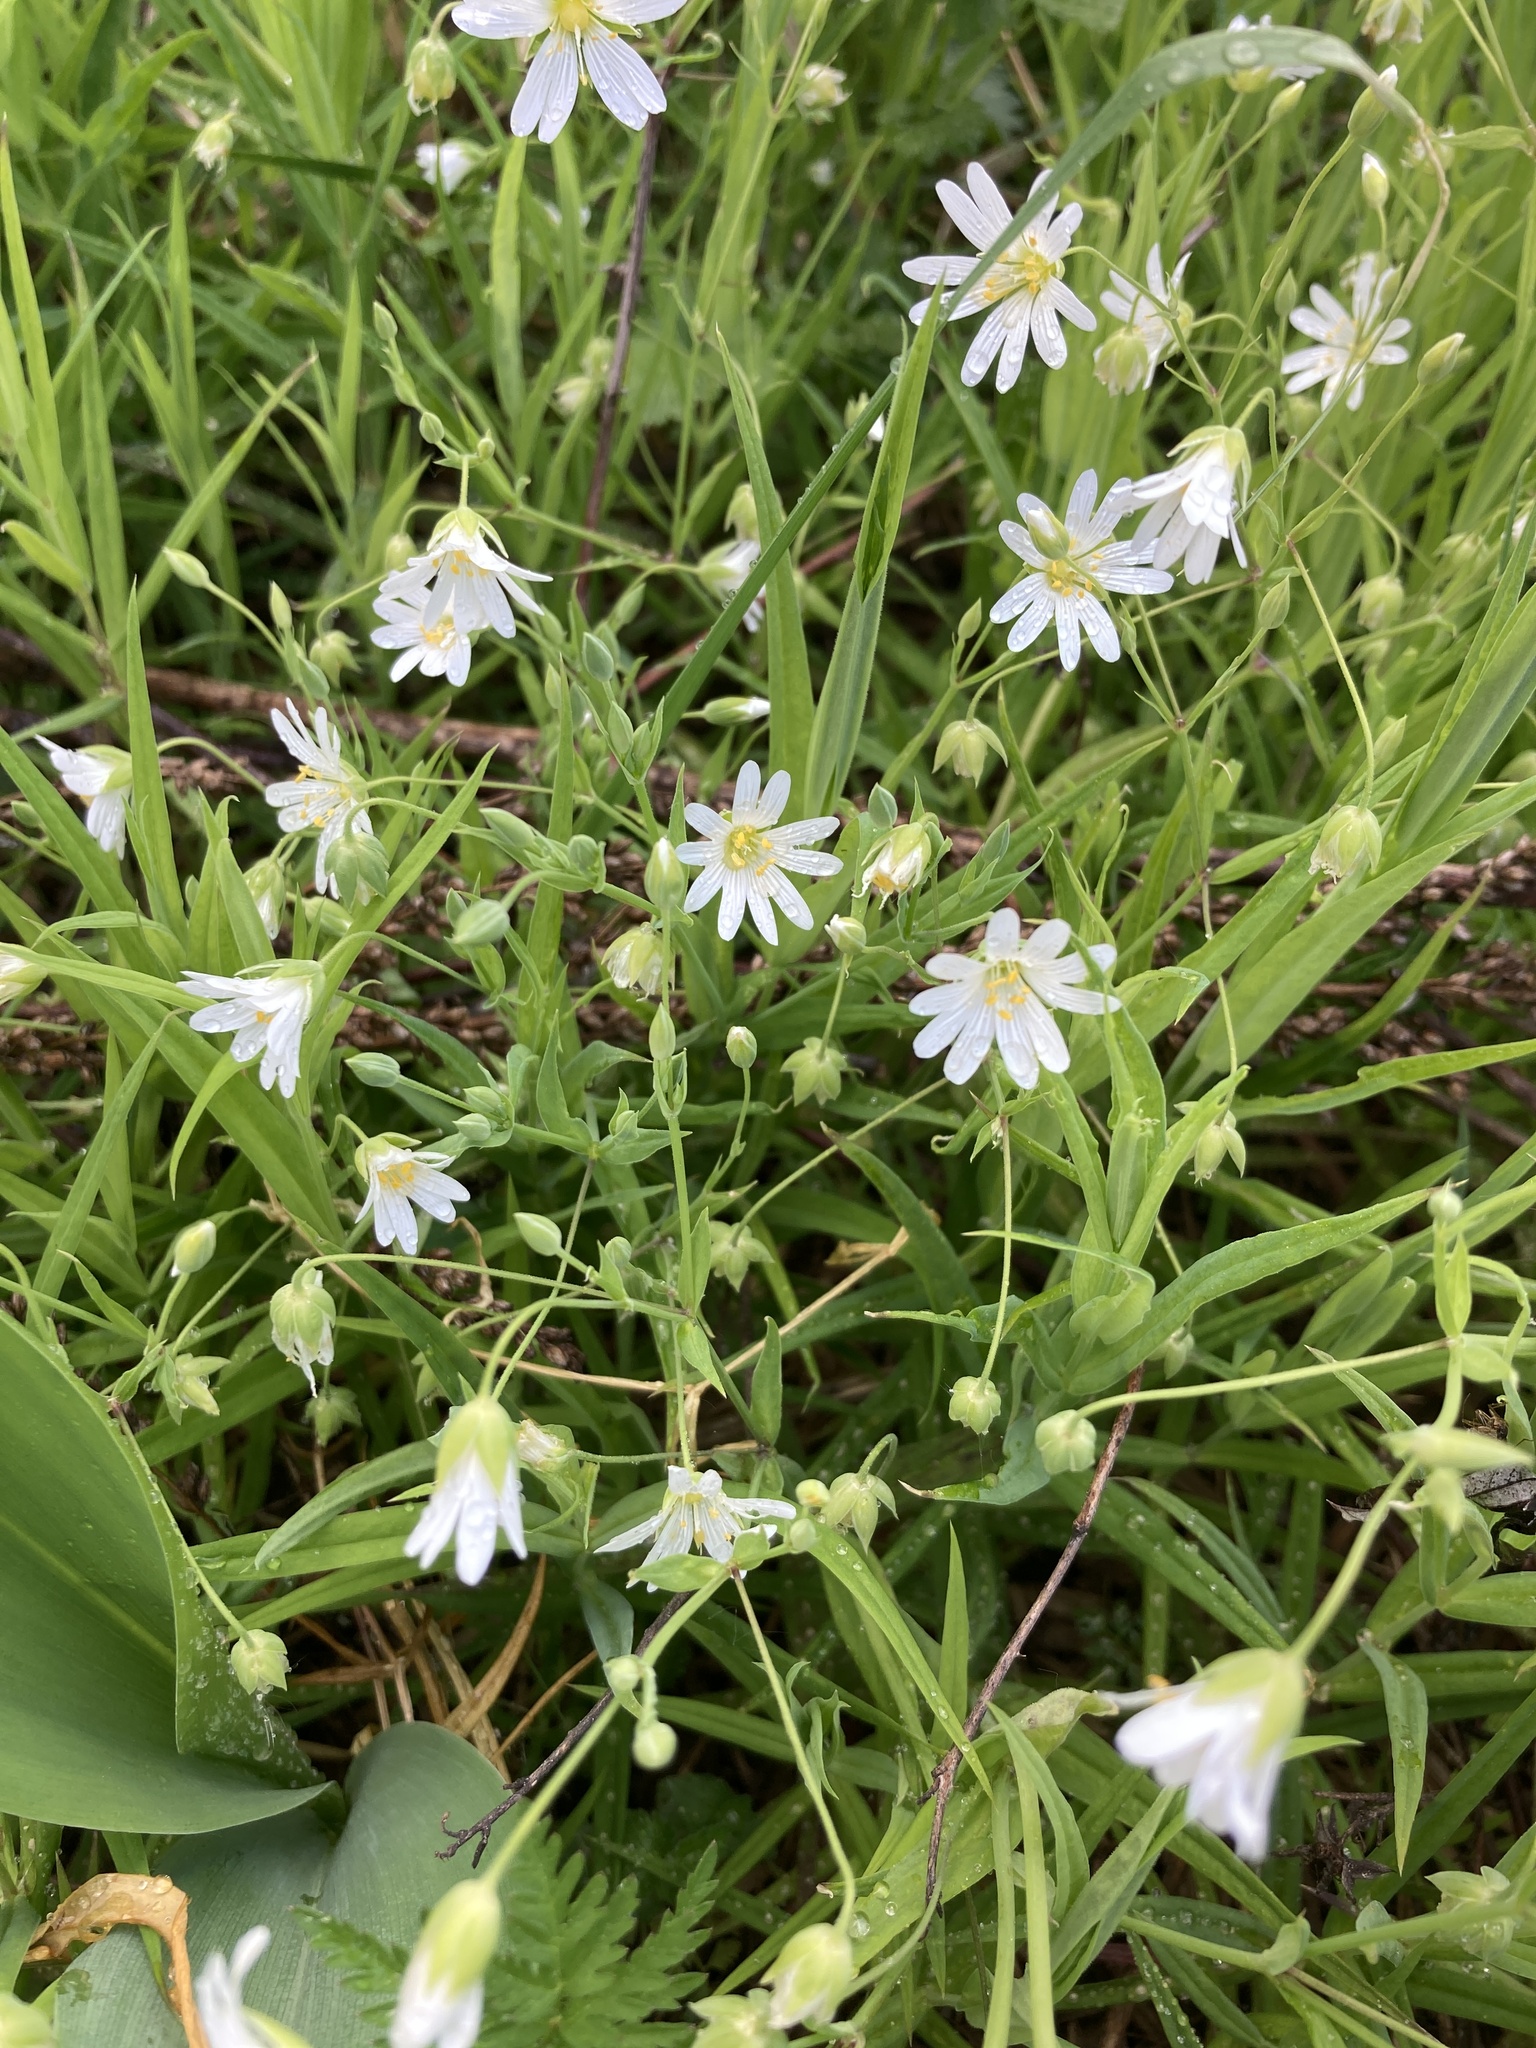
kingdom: Plantae
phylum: Tracheophyta
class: Magnoliopsida
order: Caryophyllales
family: Caryophyllaceae
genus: Rabelera
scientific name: Rabelera holostea
